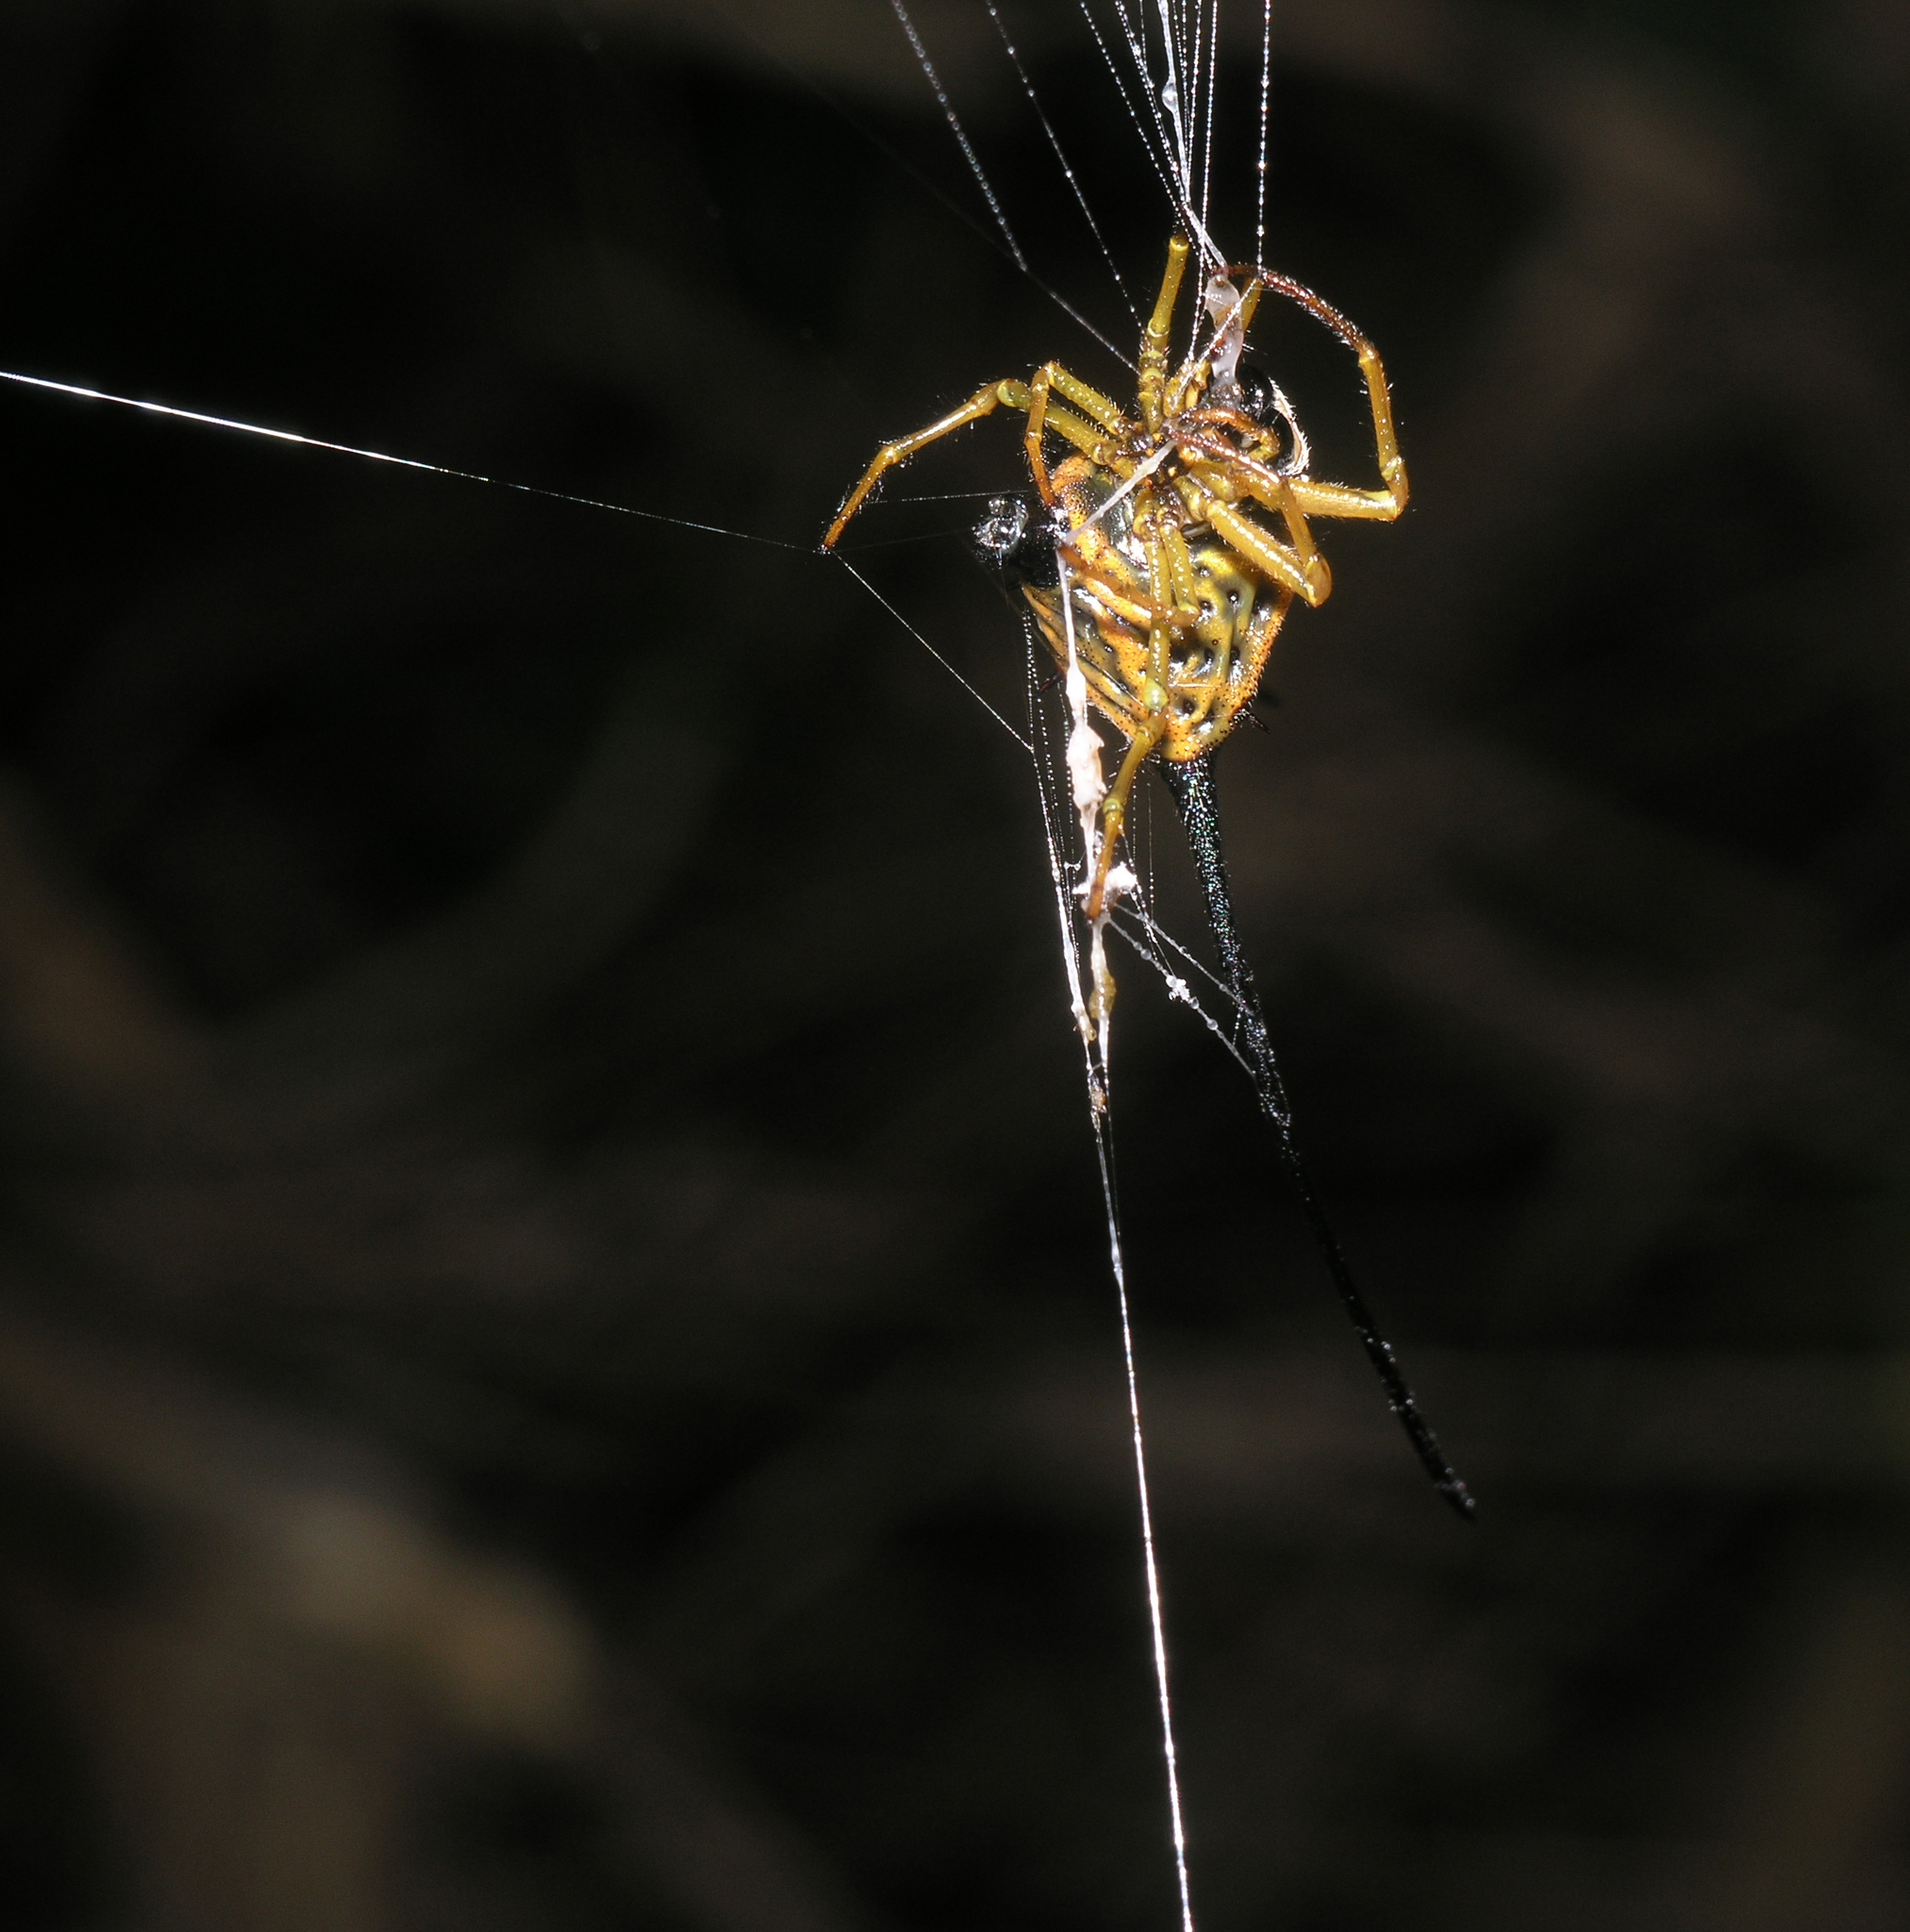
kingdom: Animalia
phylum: Arthropoda
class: Arachnida
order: Araneae
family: Araneidae
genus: Macracantha
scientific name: Macracantha arcuata
